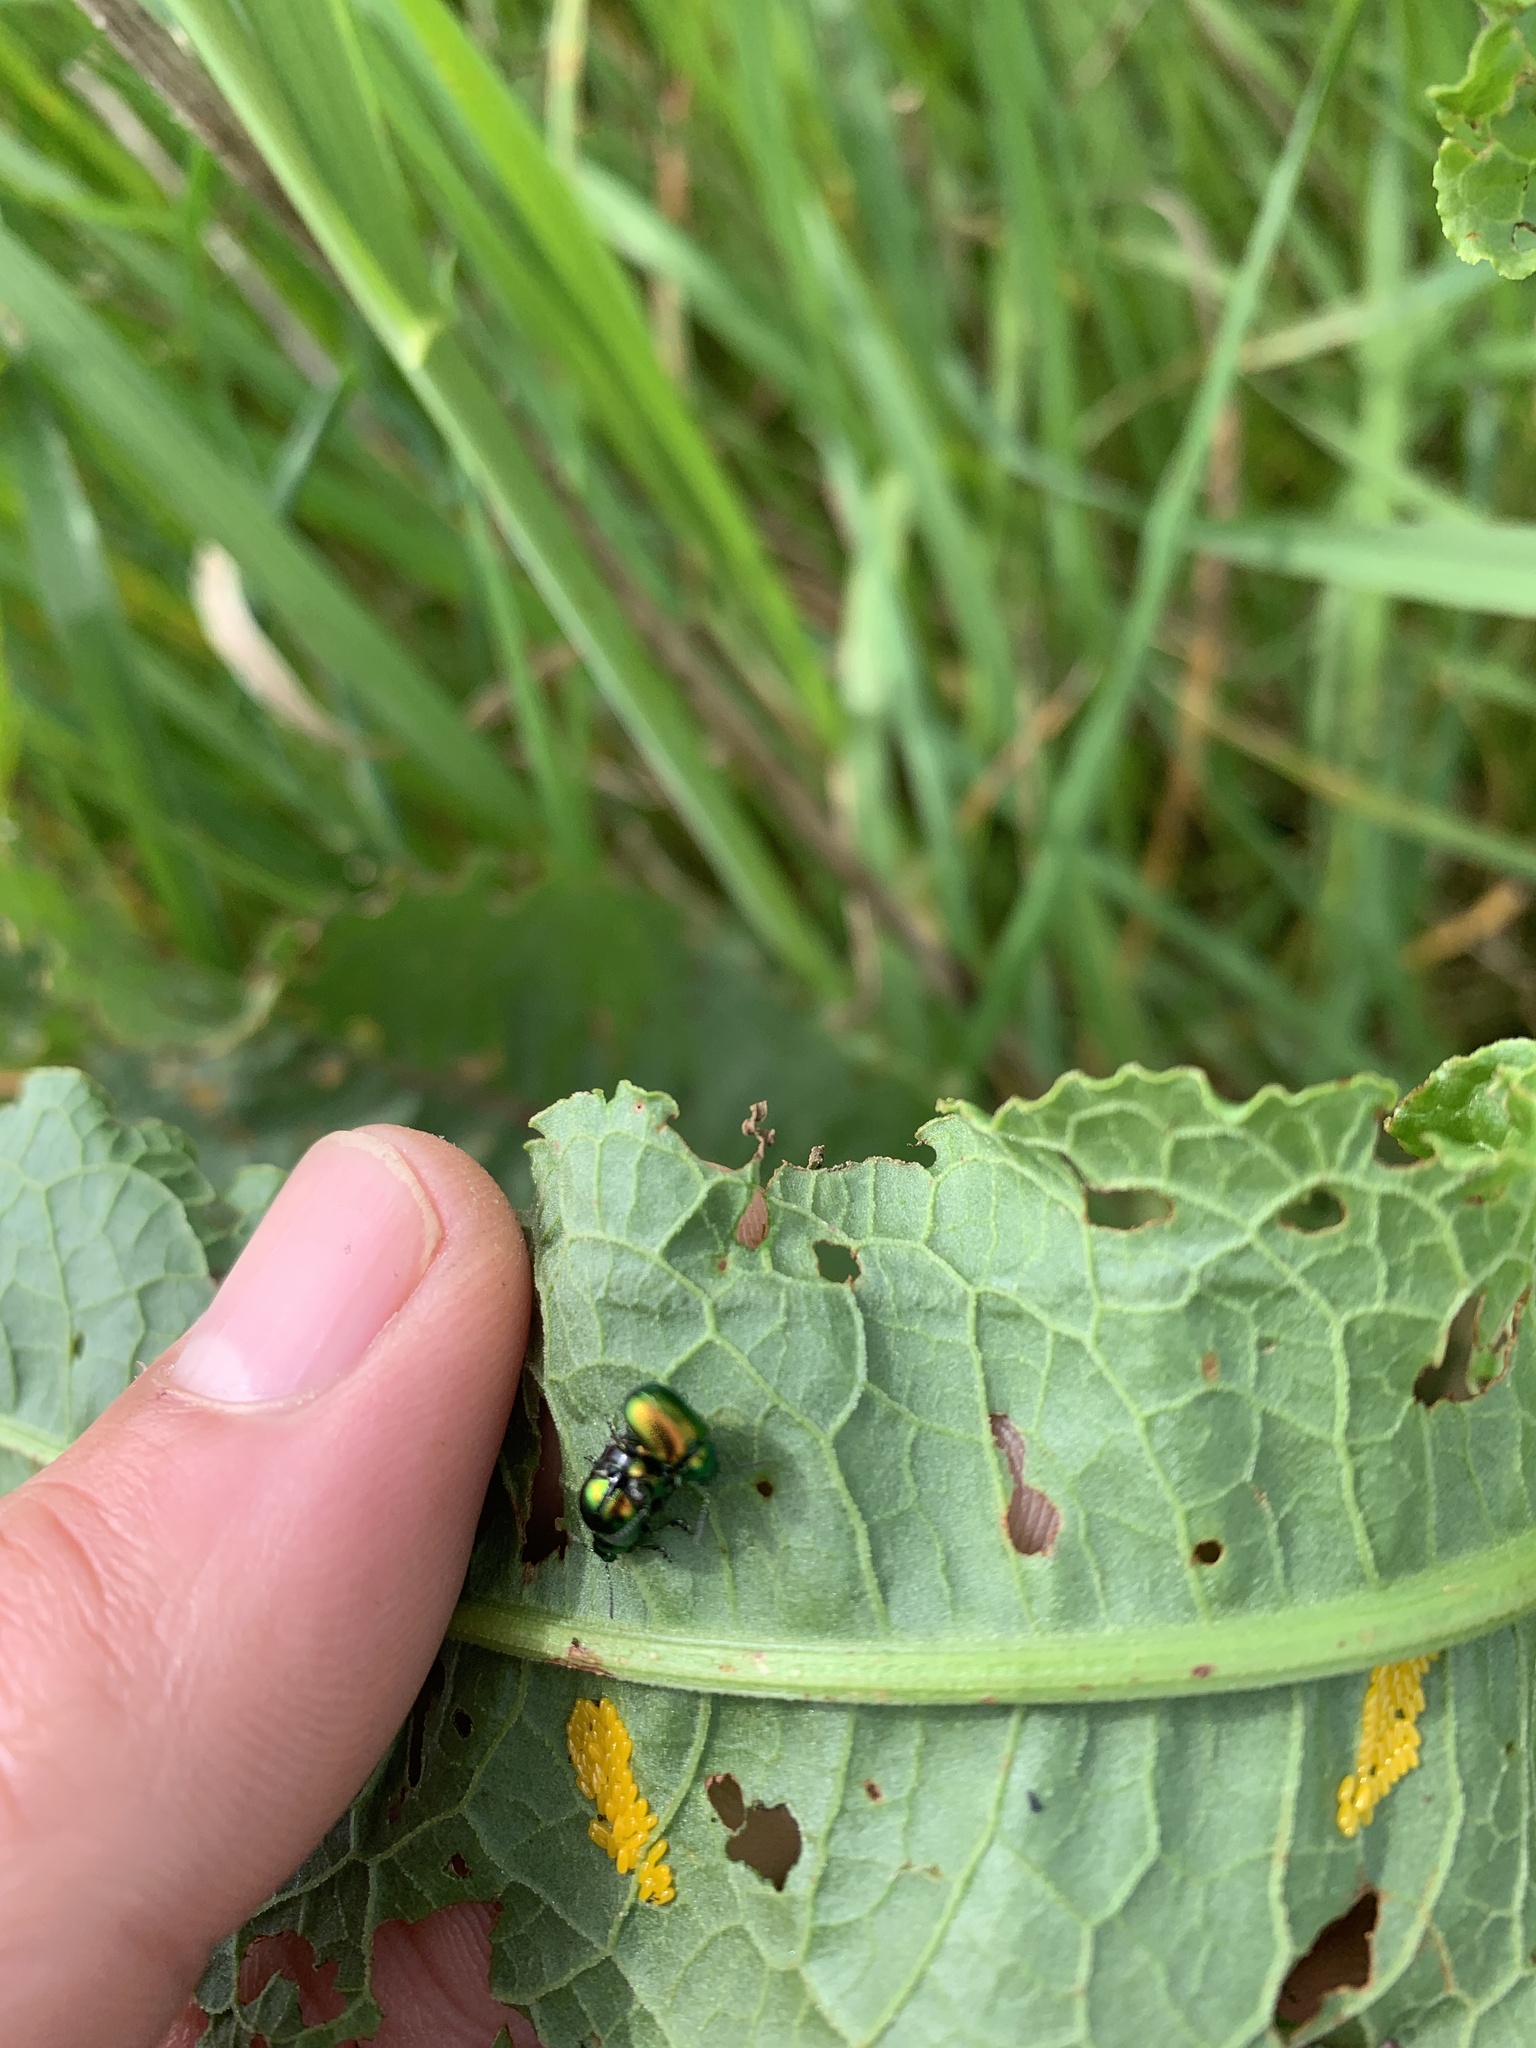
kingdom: Animalia
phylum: Arthropoda
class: Insecta
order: Coleoptera
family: Chrysomelidae
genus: Gastrophysa
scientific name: Gastrophysa viridula
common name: Green dock beetle
